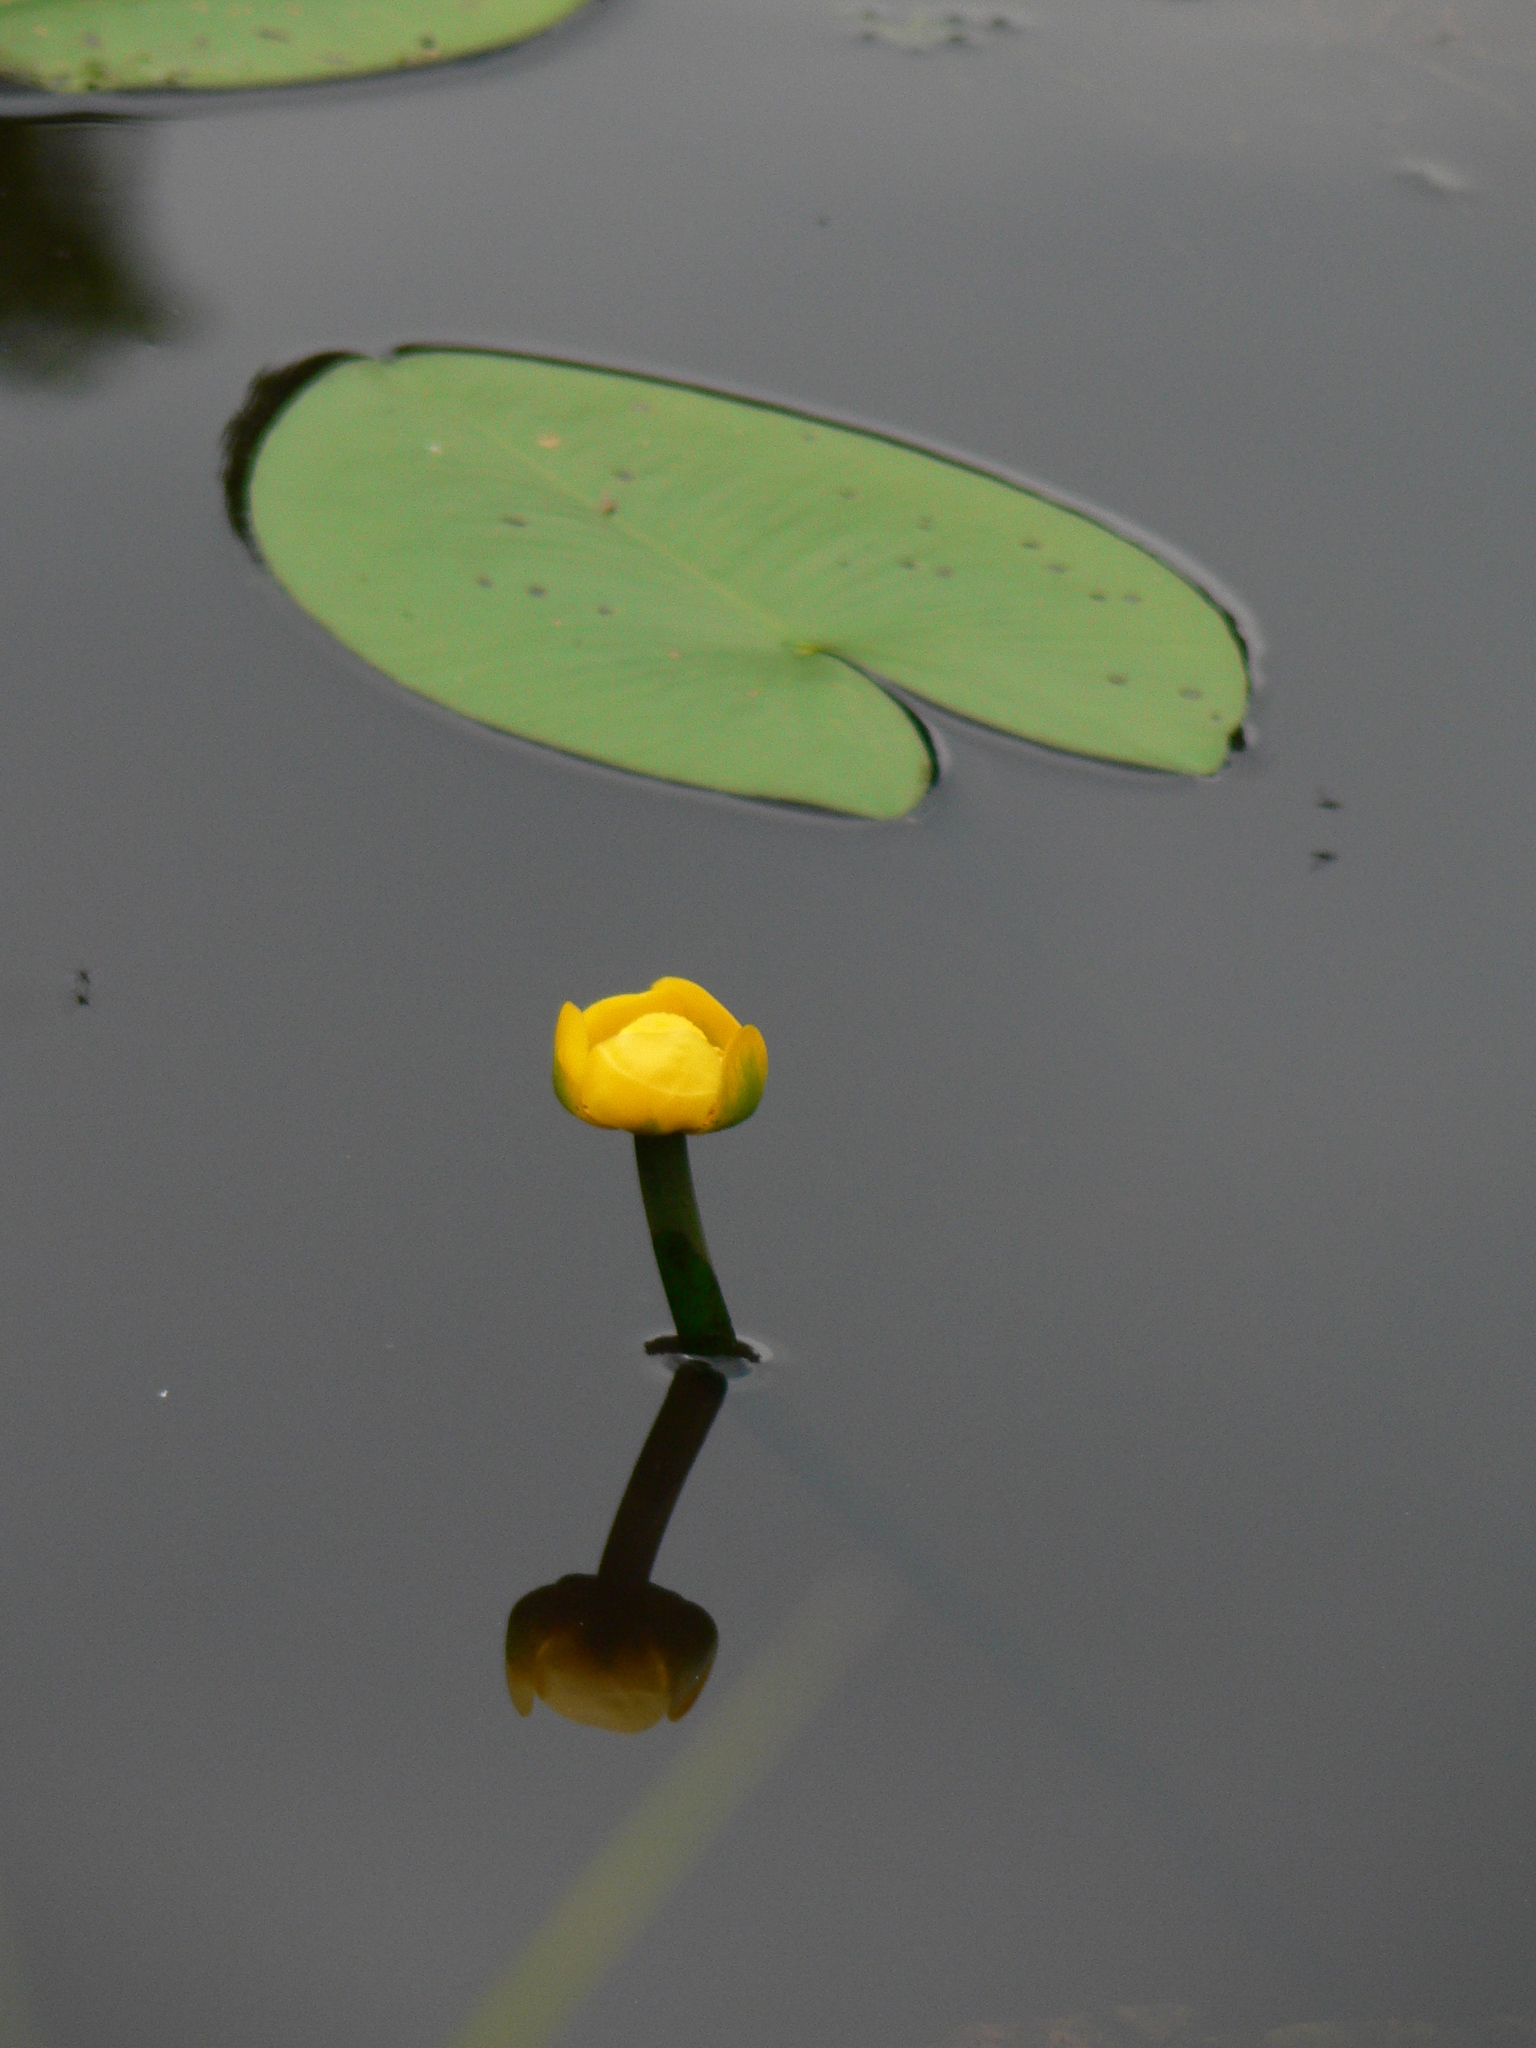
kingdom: Plantae
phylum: Tracheophyta
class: Magnoliopsida
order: Nymphaeales
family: Nymphaeaceae
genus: Nuphar
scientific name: Nuphar lutea
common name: Yellow water-lily
